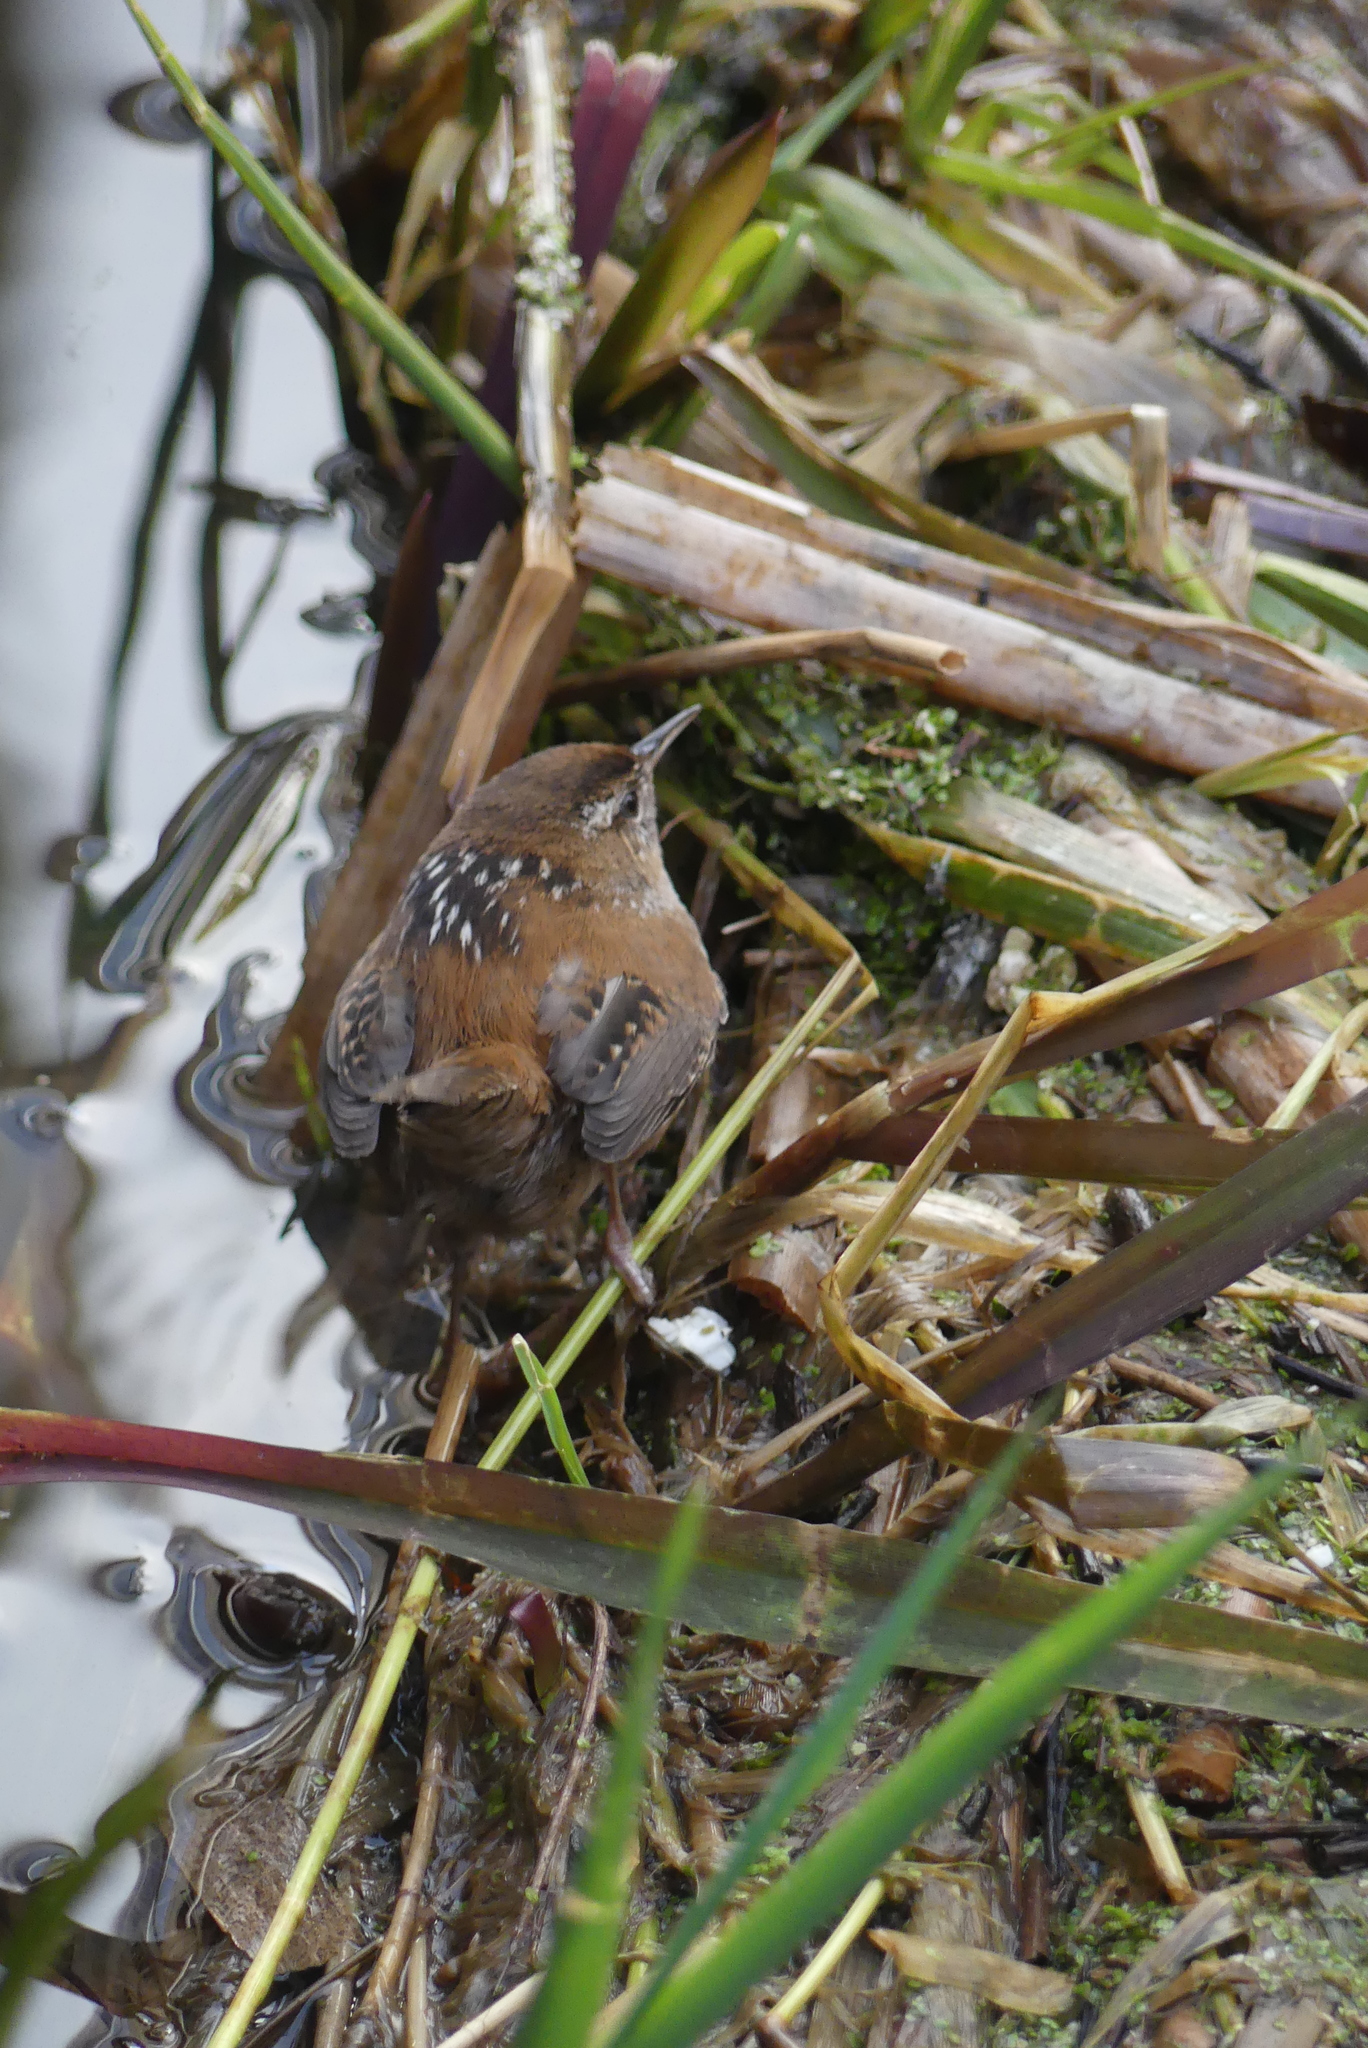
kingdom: Animalia
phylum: Chordata
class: Aves
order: Passeriformes
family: Troglodytidae
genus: Cistothorus
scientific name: Cistothorus palustris
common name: Marsh wren
